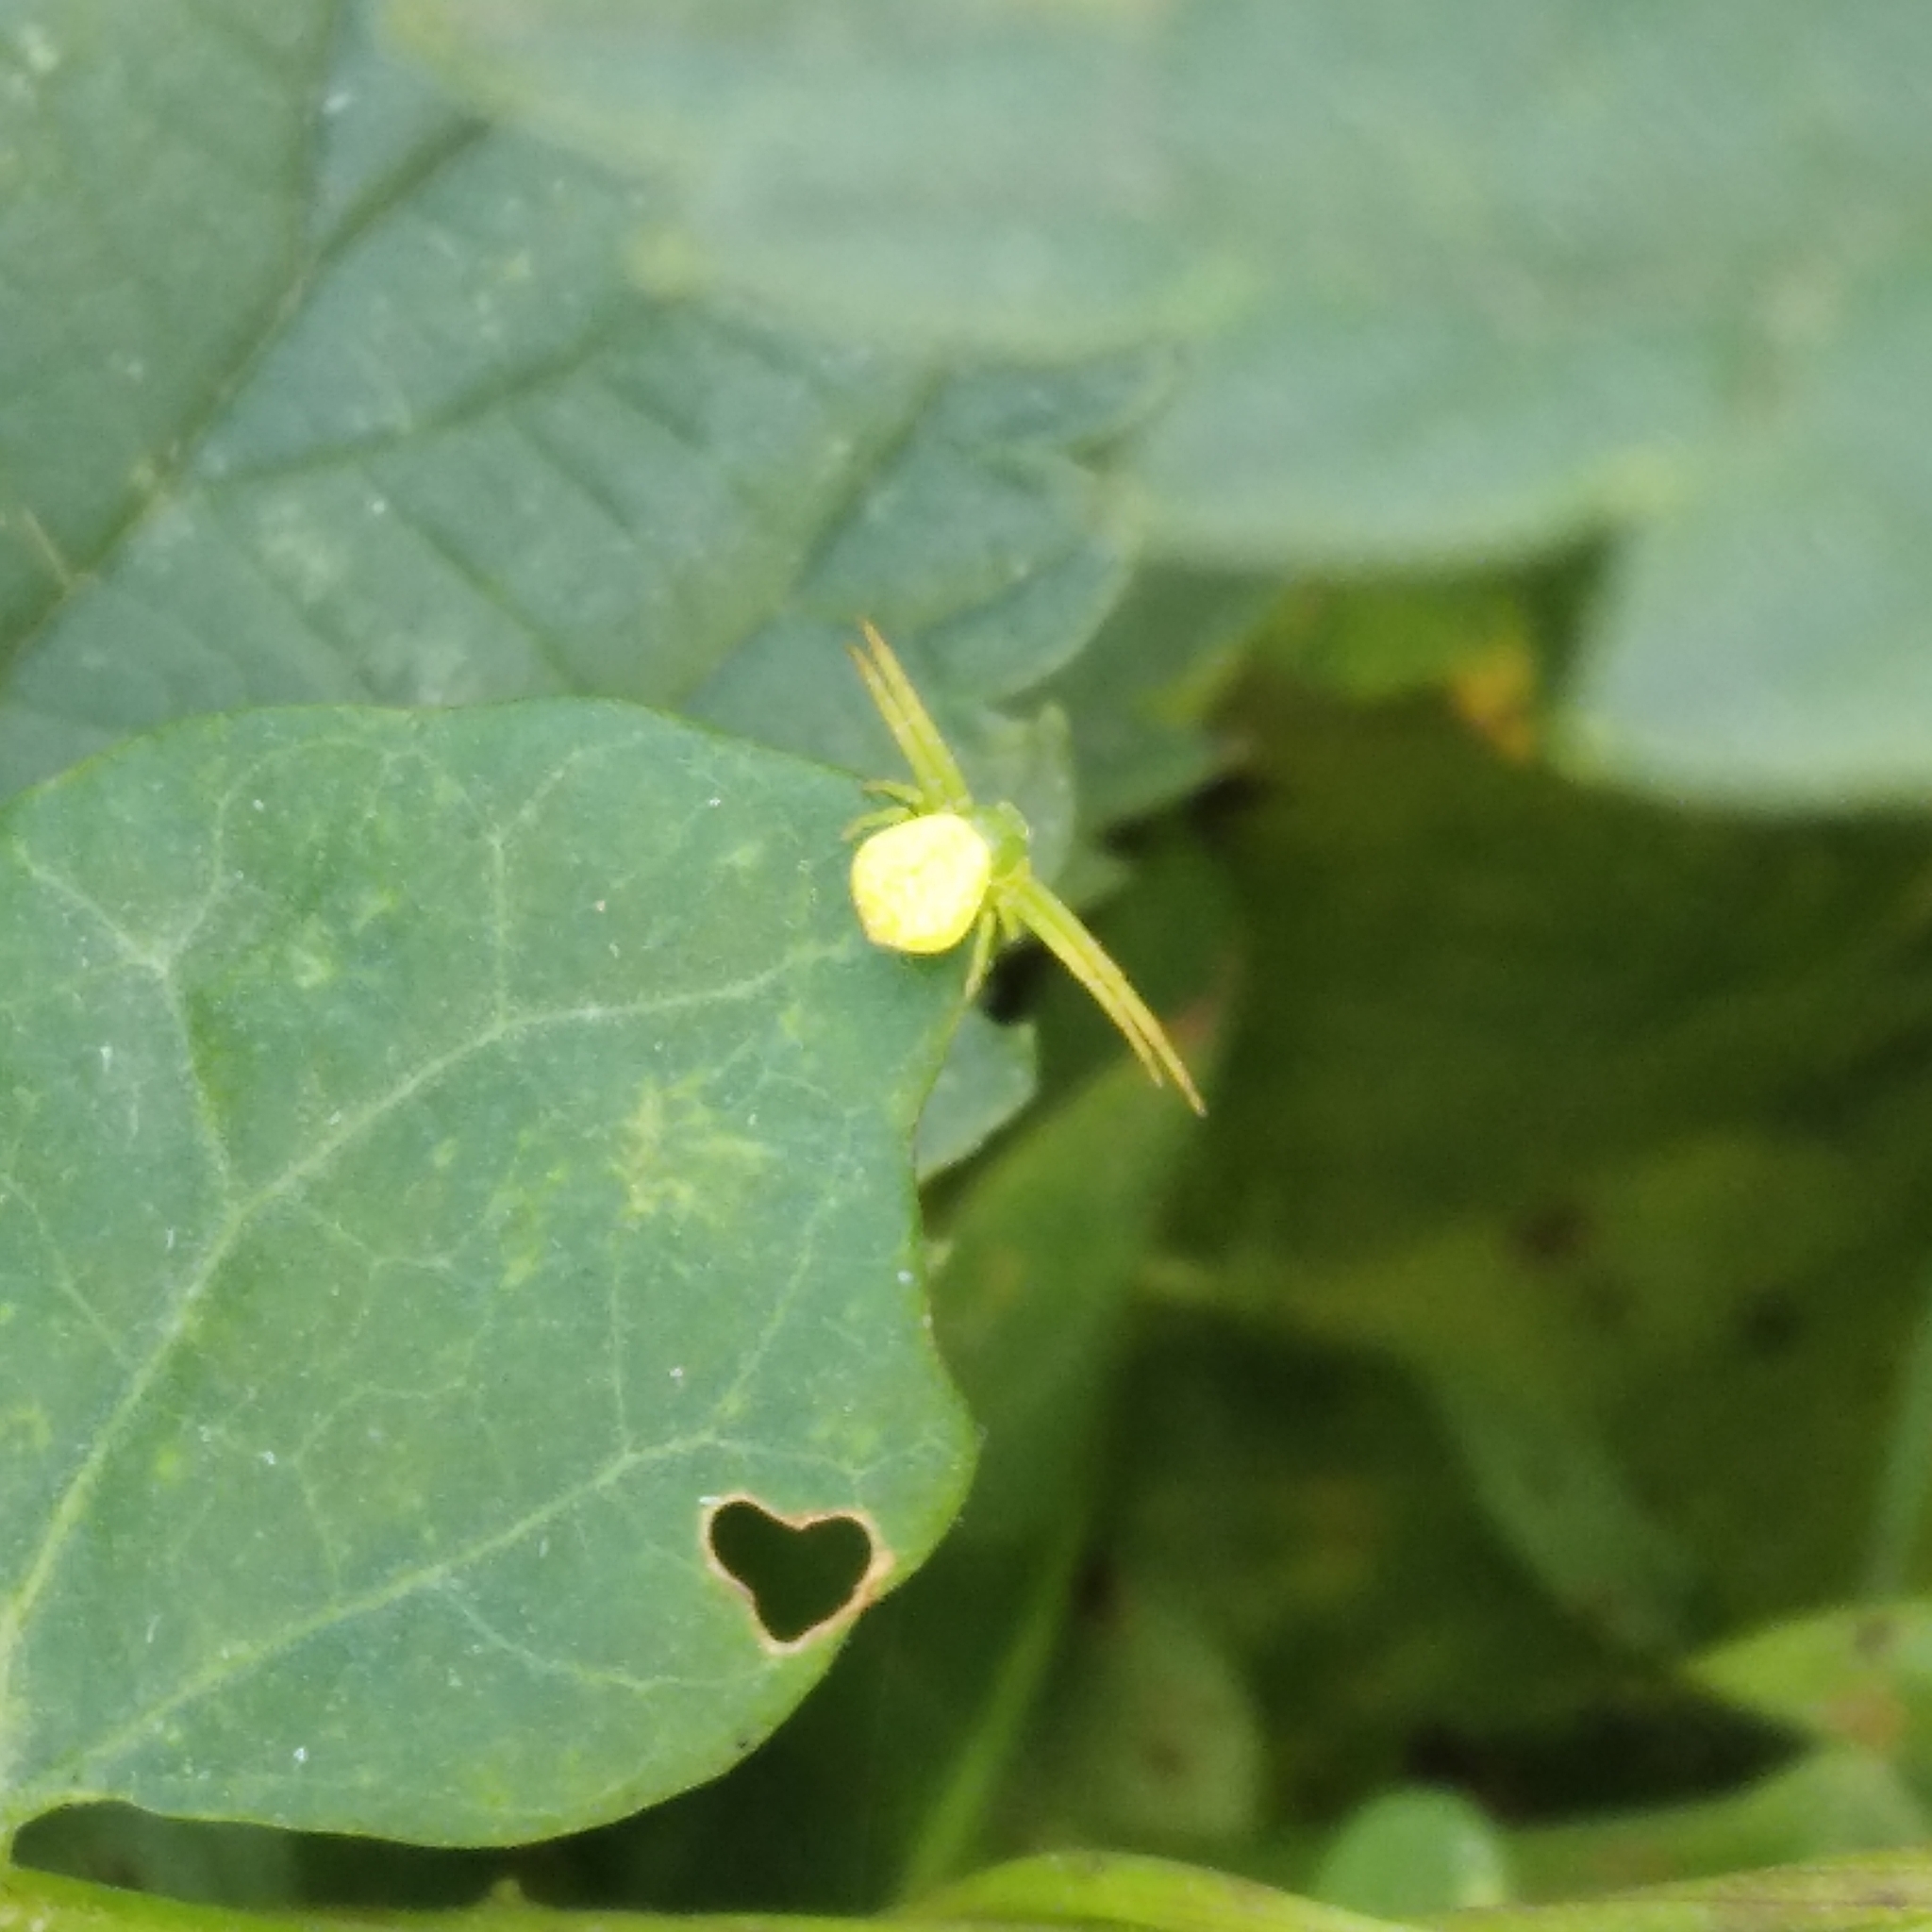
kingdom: Animalia
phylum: Arthropoda
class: Arachnida
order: Araneae
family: Thomisidae
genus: Ebrechtella
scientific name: Ebrechtella tricuspidata
